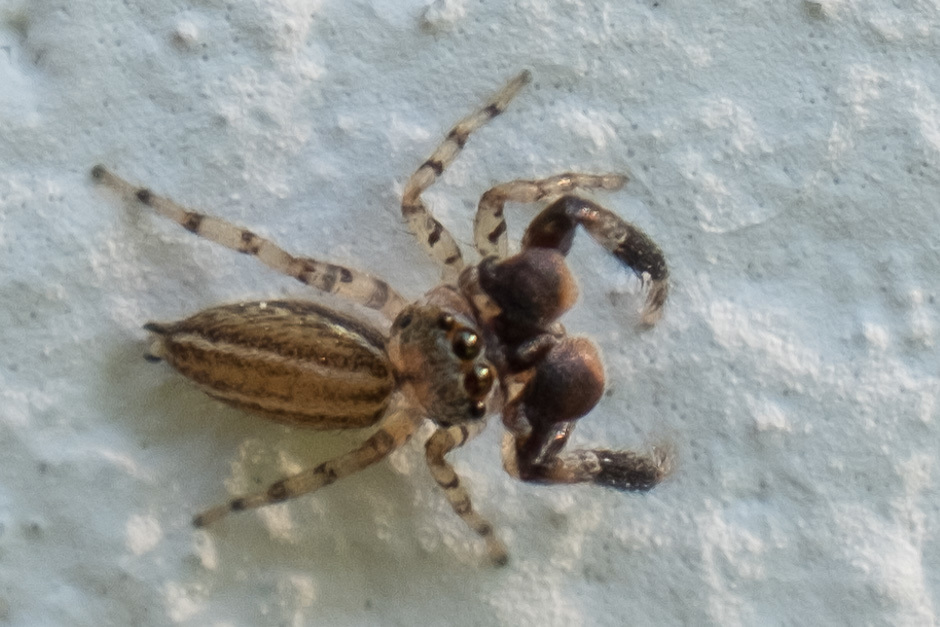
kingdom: Animalia
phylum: Arthropoda
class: Arachnida
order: Araneae
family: Salticidae
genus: Marpissa
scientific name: Marpissa lineata
